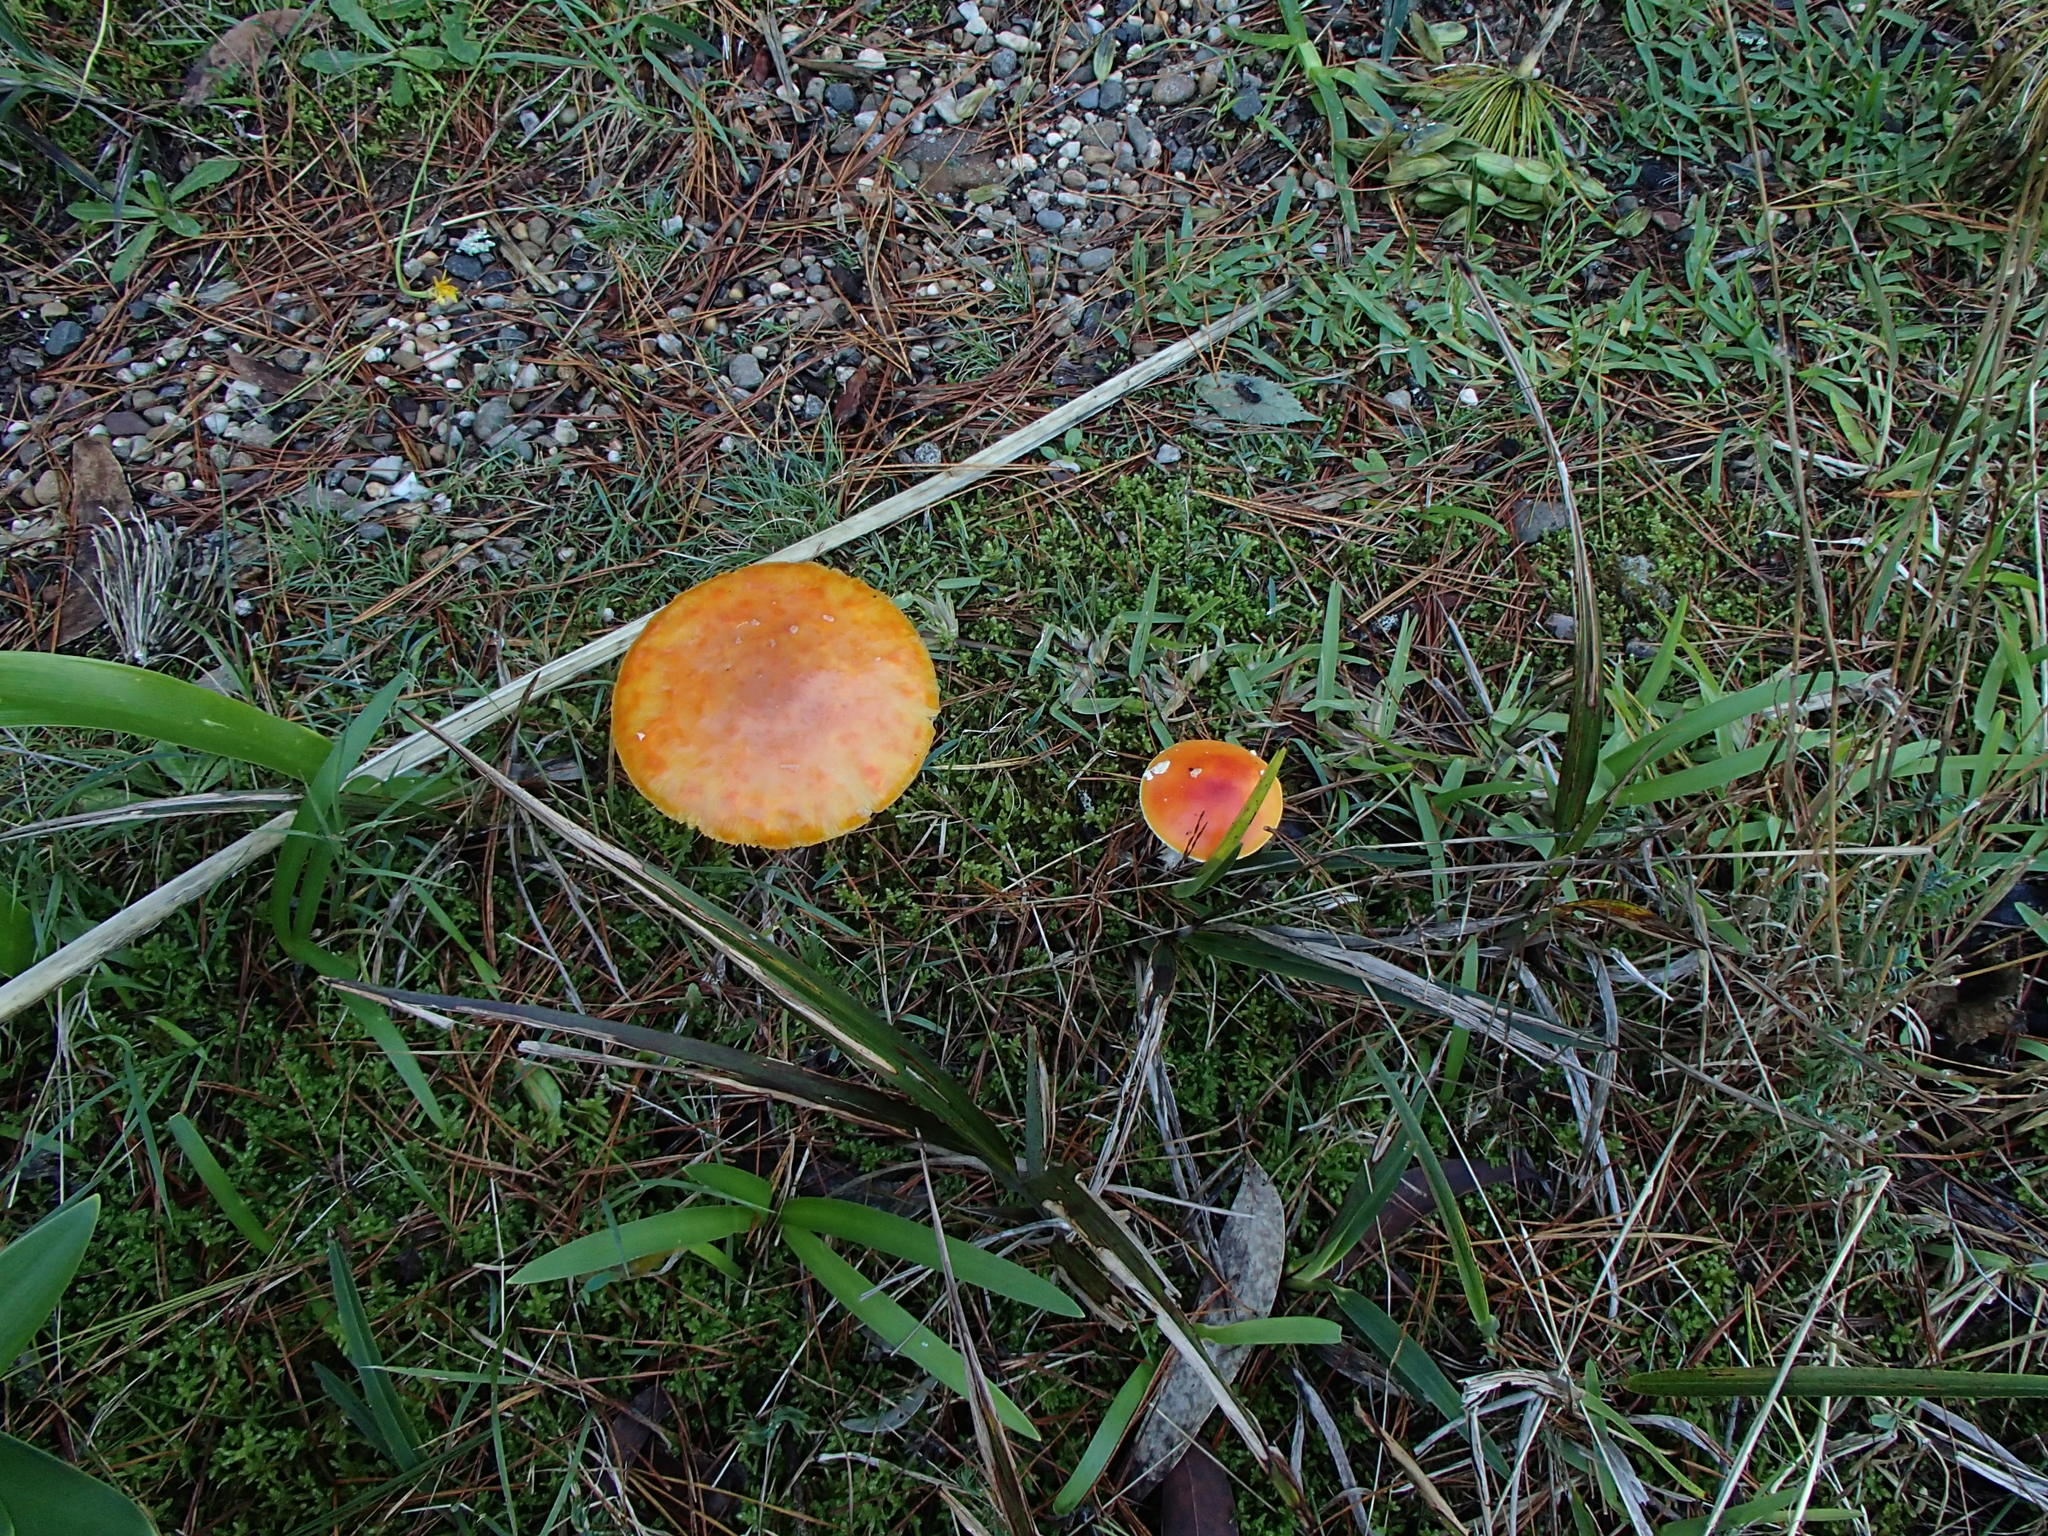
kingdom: Fungi
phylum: Basidiomycota
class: Agaricomycetes
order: Agaricales
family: Amanitaceae
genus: Amanita
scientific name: Amanita muscaria
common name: Fly agaric
